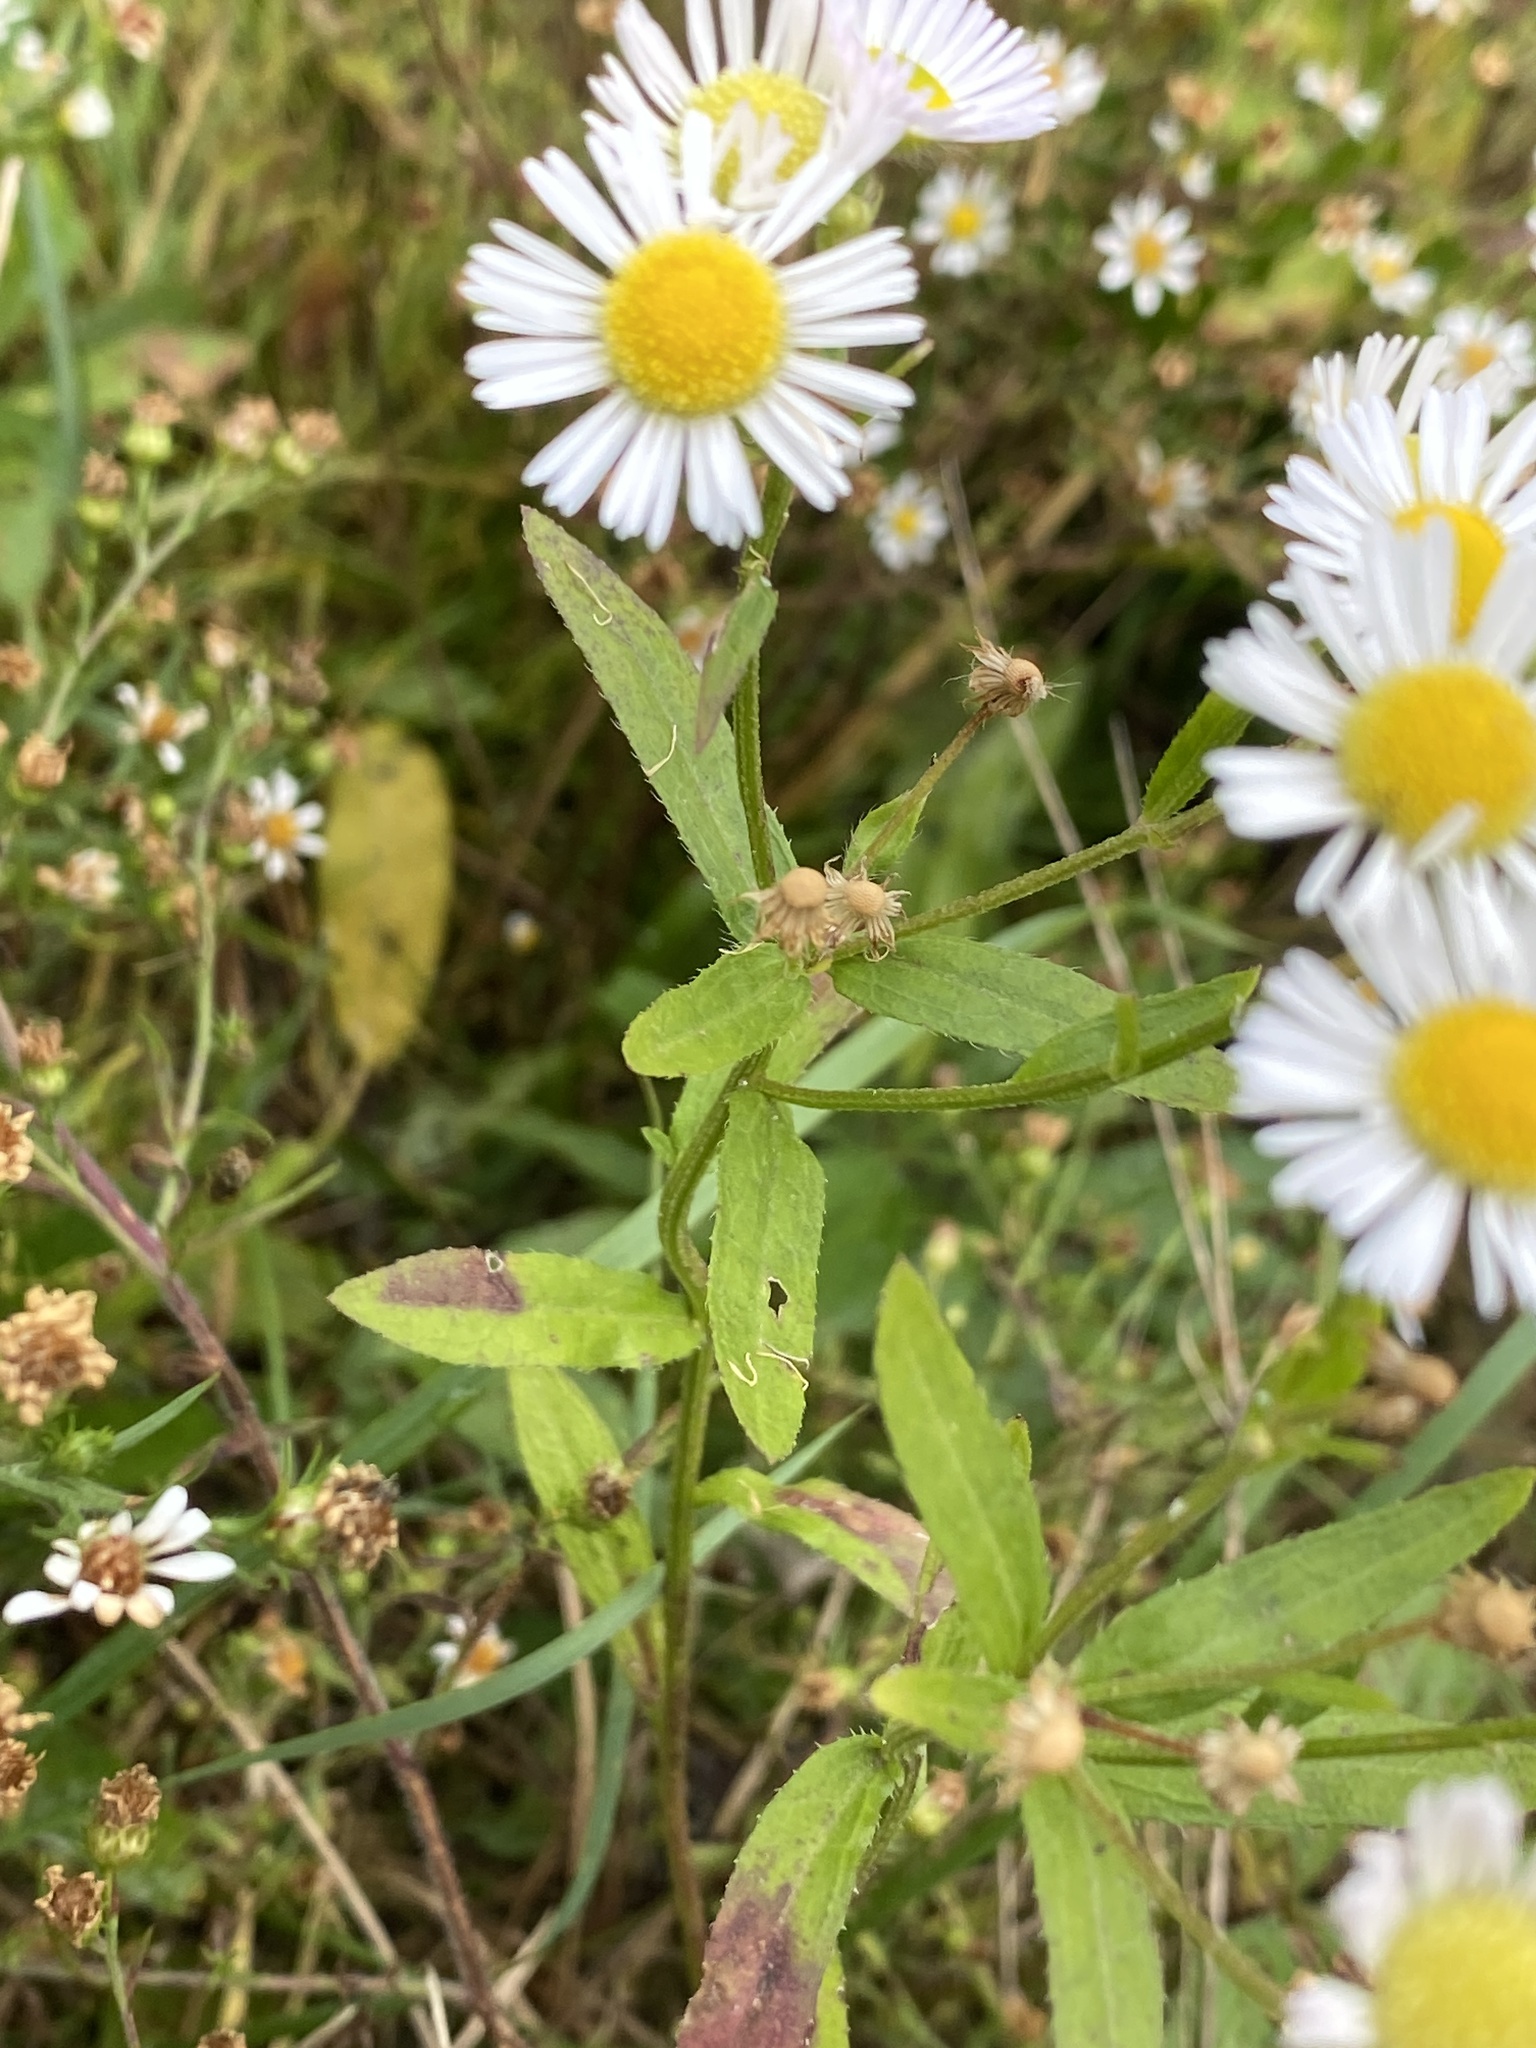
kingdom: Plantae
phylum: Tracheophyta
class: Magnoliopsida
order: Asterales
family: Asteraceae
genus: Erigeron
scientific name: Erigeron strigosus
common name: Common eastern fleabane
